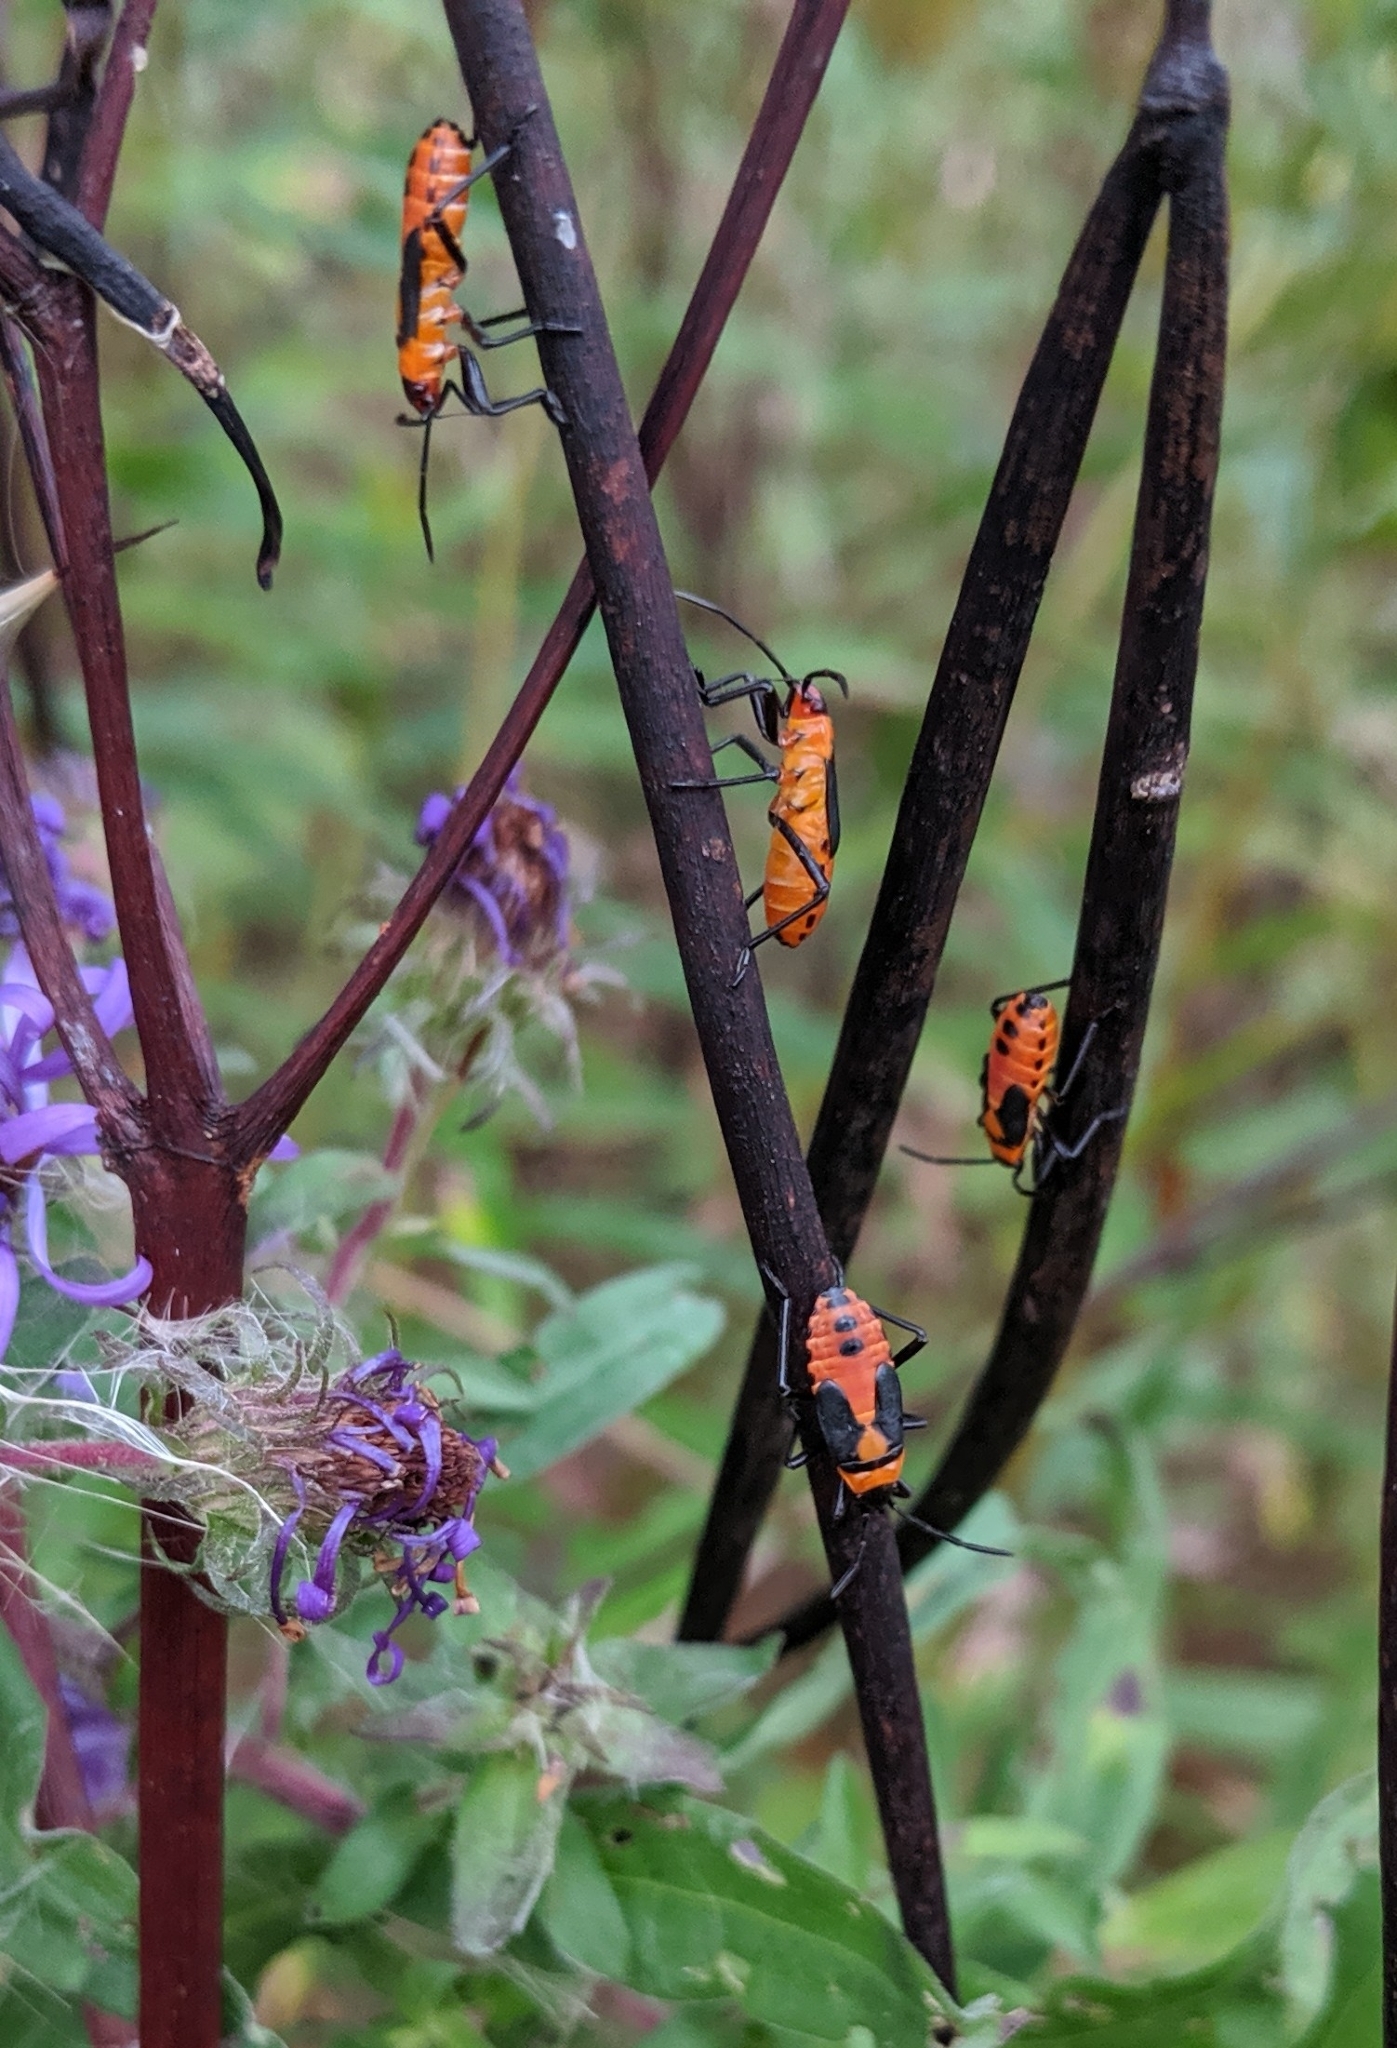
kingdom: Animalia
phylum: Arthropoda
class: Insecta
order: Hemiptera
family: Lygaeidae
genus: Oncopeltus
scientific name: Oncopeltus fasciatus
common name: Large milkweed bug
